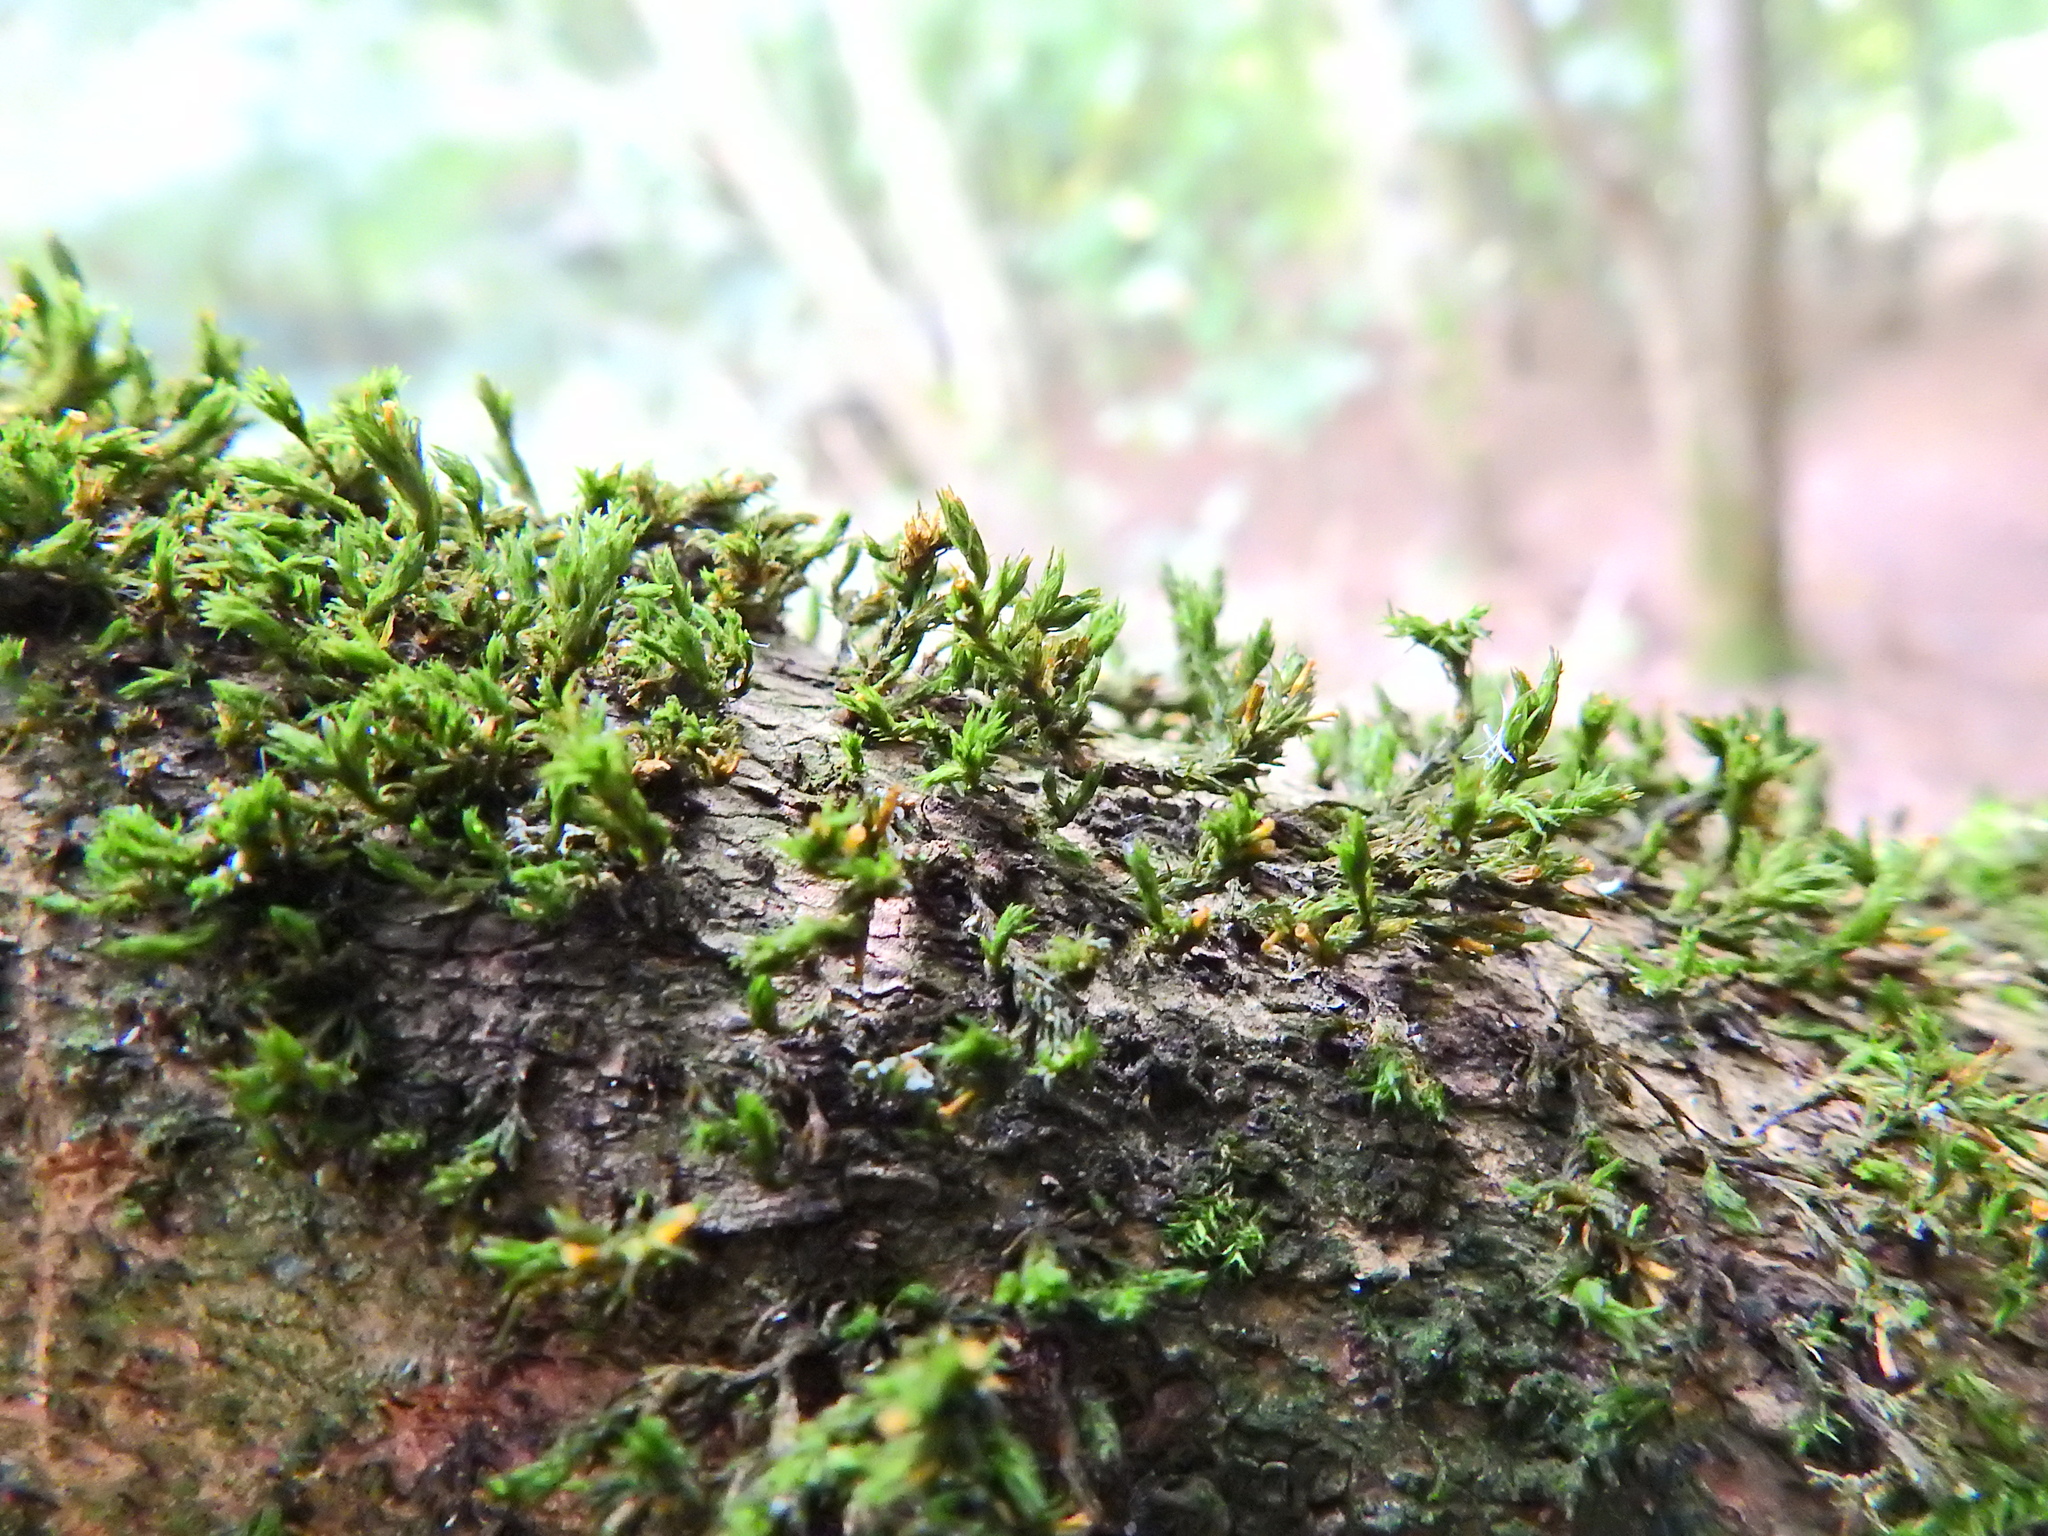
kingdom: Plantae
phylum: Bryophyta
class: Bryopsida
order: Hypnales
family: Cryphaeaceae
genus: Cryphaea
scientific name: Cryphaea heteromalla
